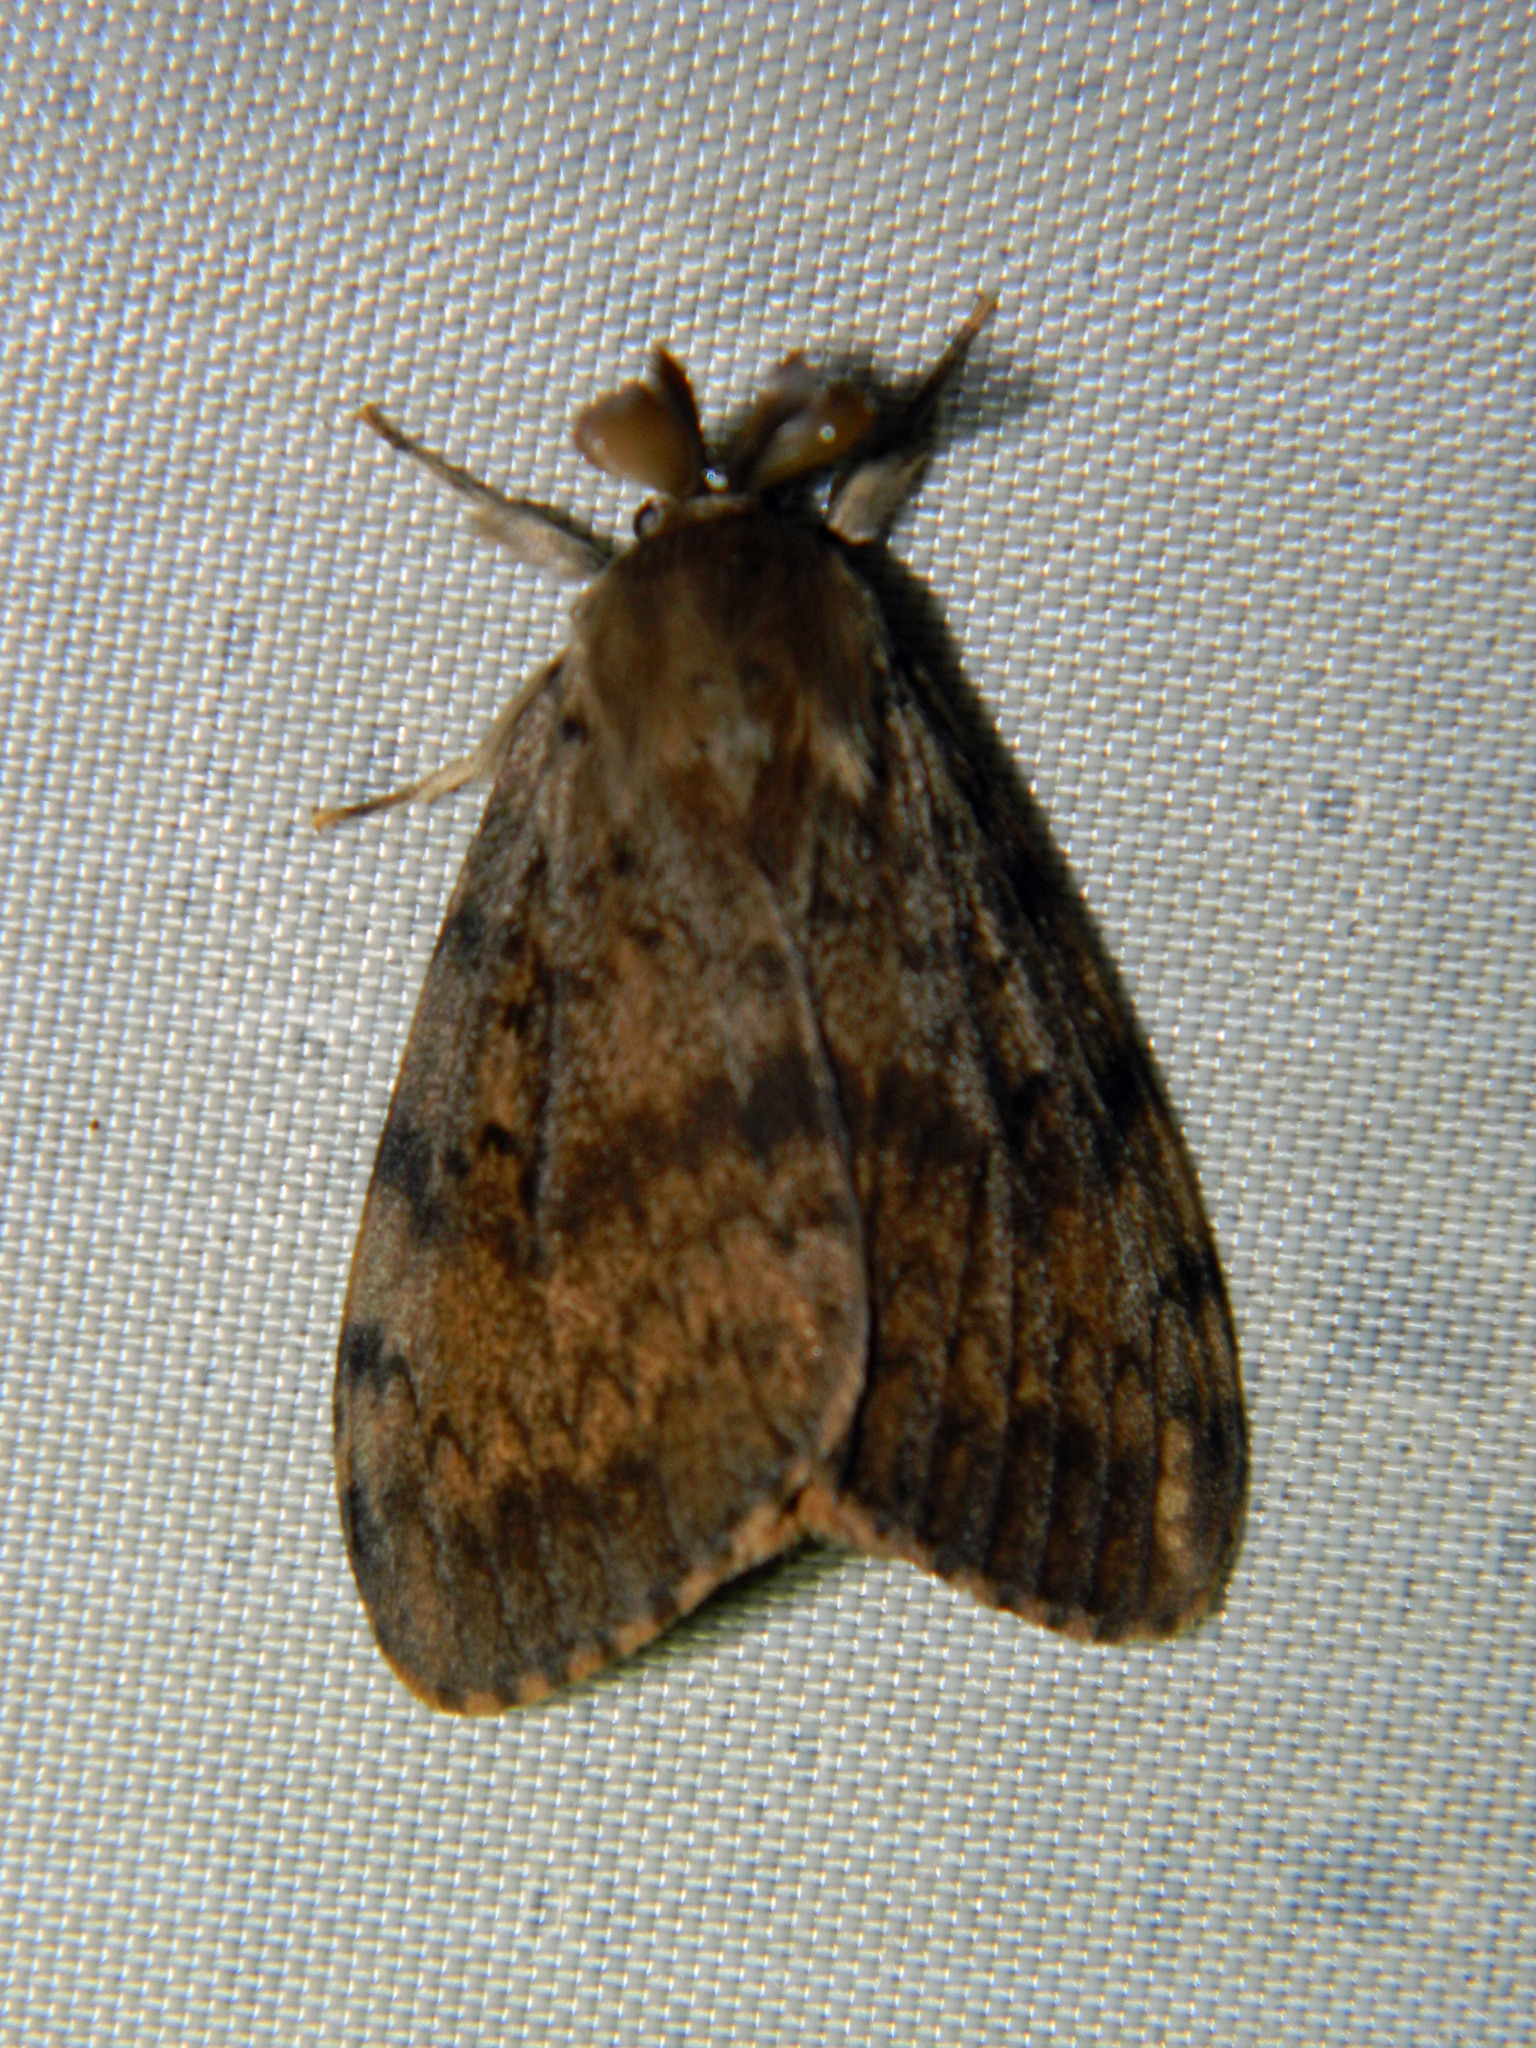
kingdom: Animalia
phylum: Arthropoda
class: Insecta
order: Lepidoptera
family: Erebidae
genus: Lymantria
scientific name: Lymantria dispar
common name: Gypsy moth
